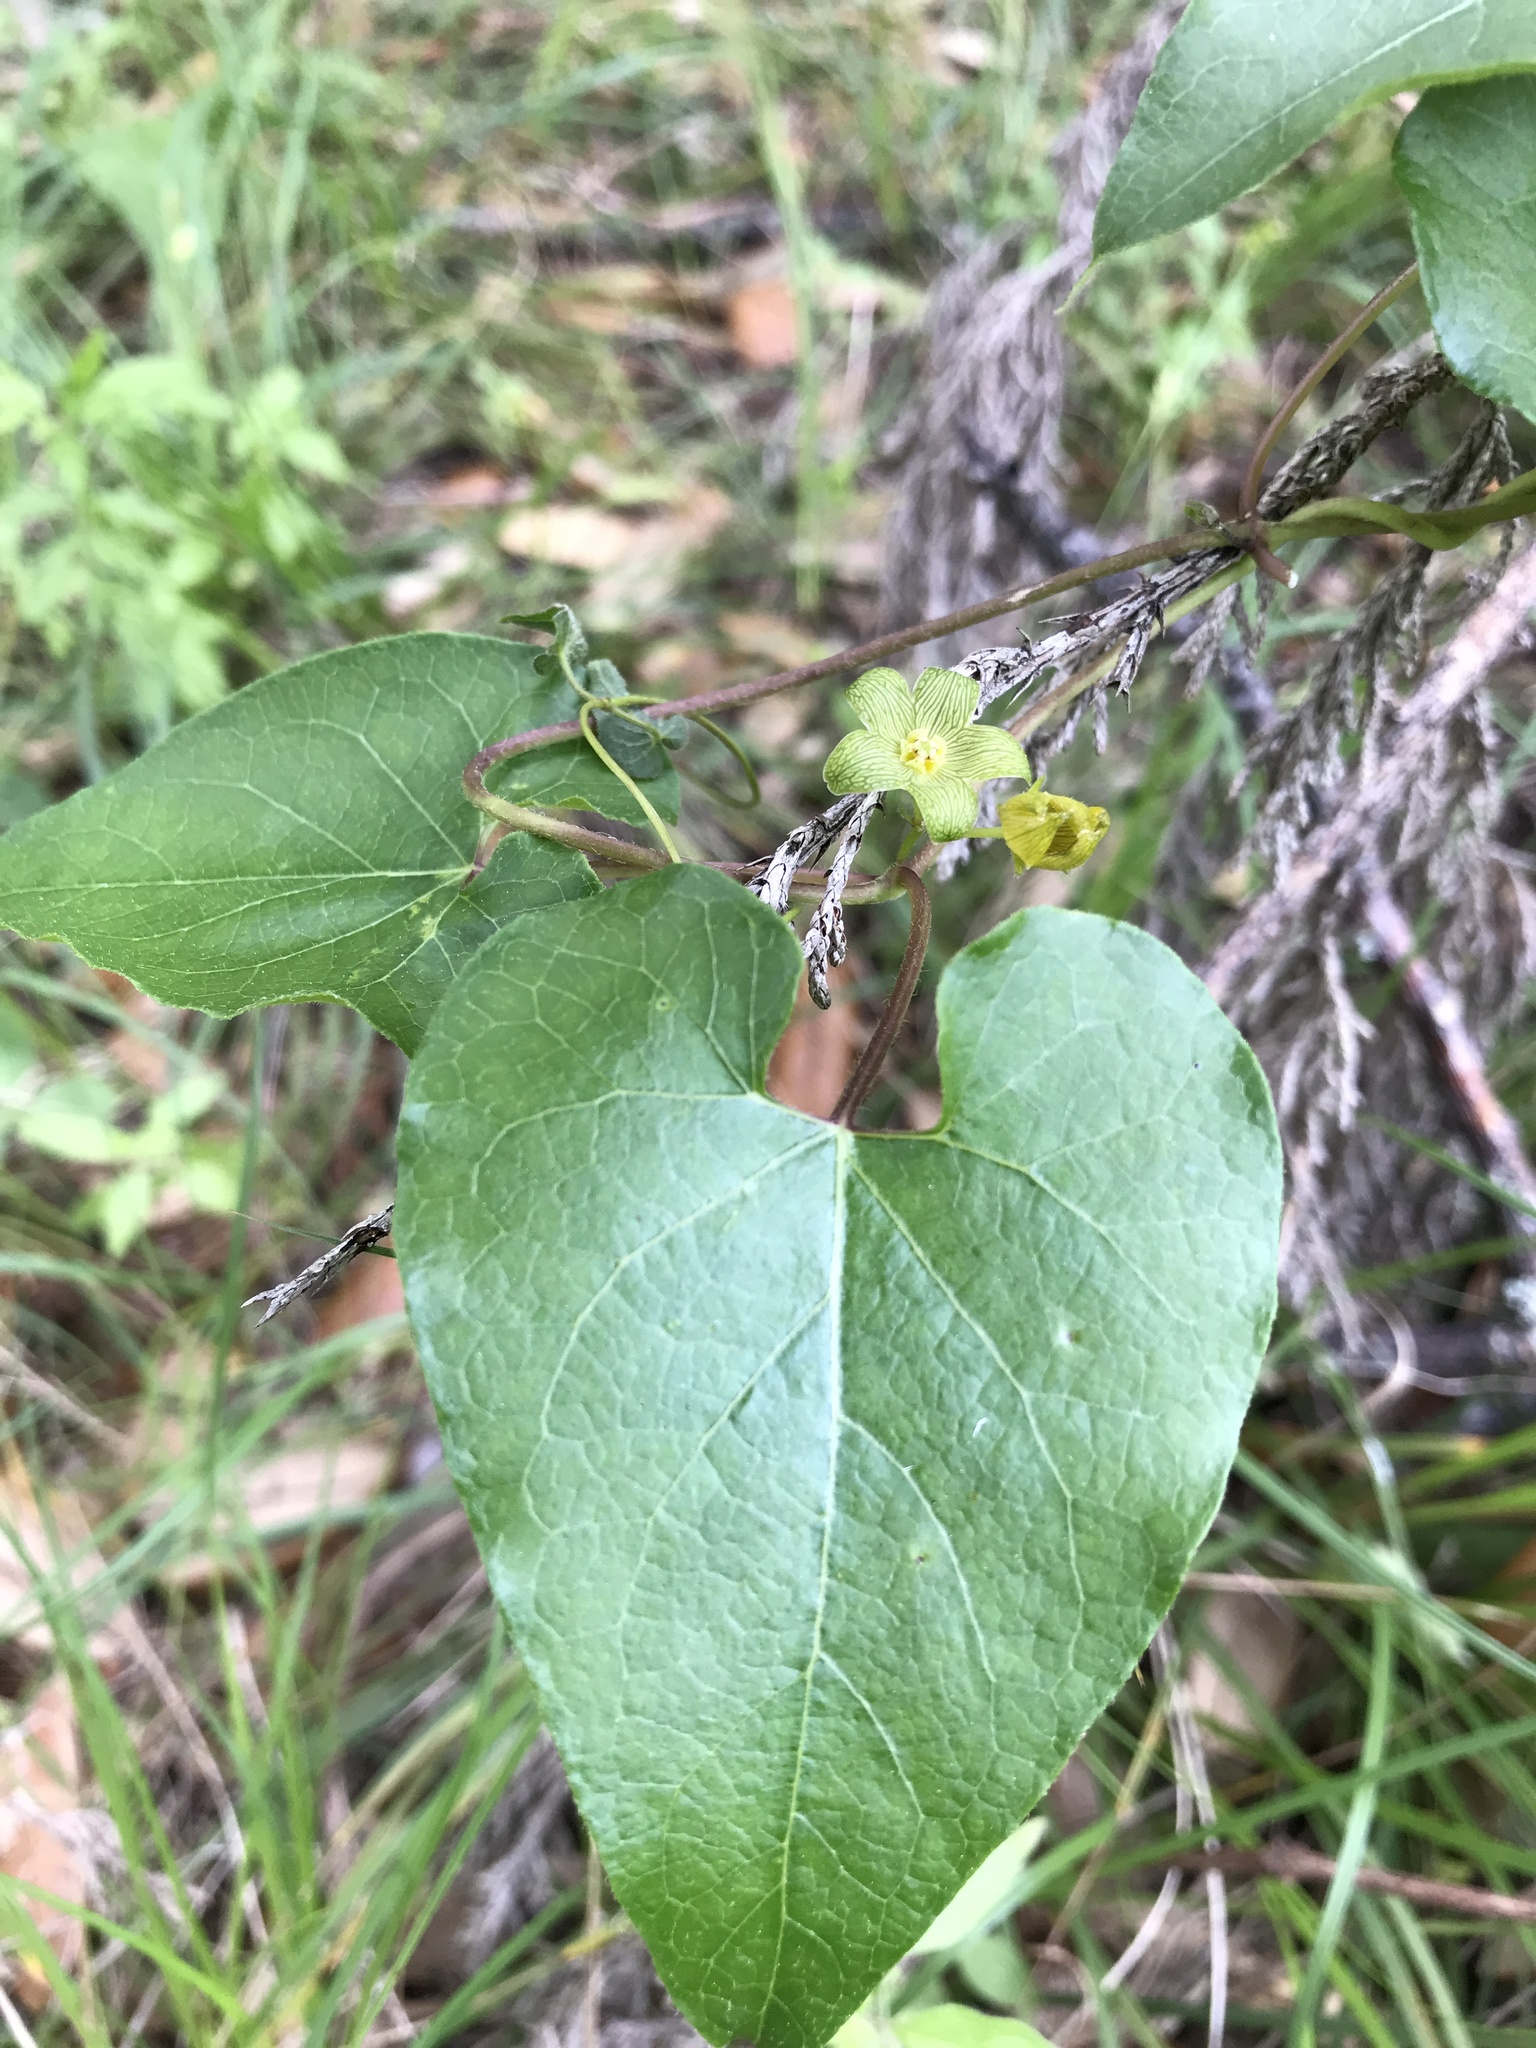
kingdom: Plantae
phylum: Tracheophyta
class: Magnoliopsida
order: Gentianales
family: Apocynaceae
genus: Matelea
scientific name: Matelea edwardsensis
